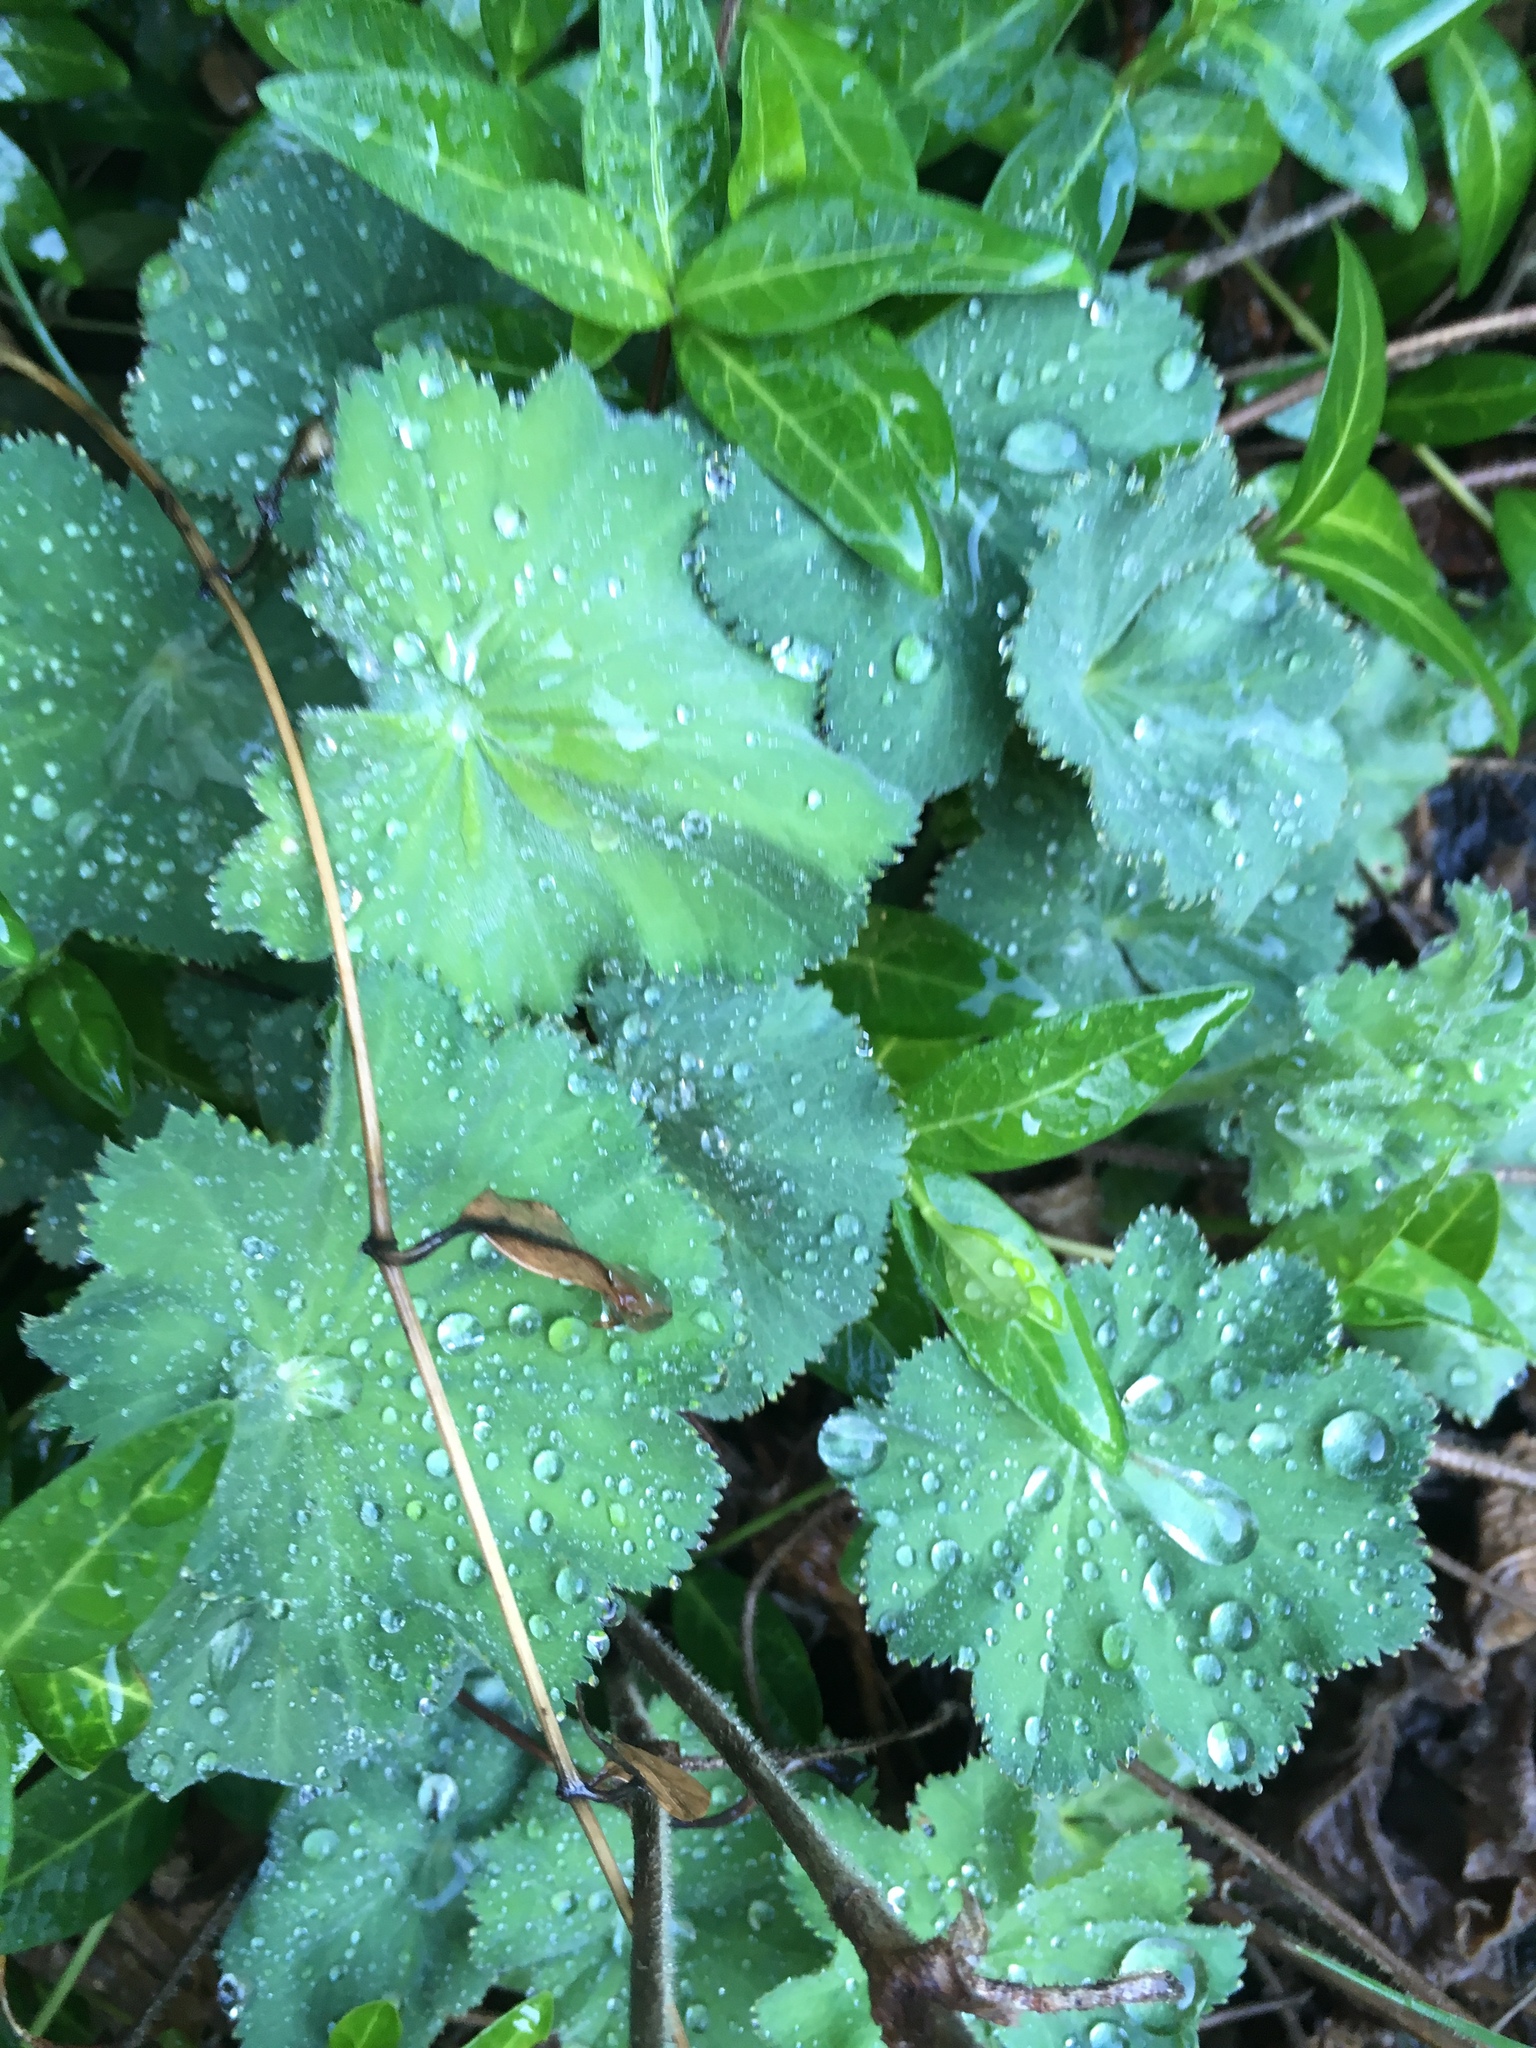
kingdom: Plantae
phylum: Tracheophyta
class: Magnoliopsida
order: Rosales
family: Rosaceae
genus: Alchemilla
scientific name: Alchemilla mollis
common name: Lady's-mantle
